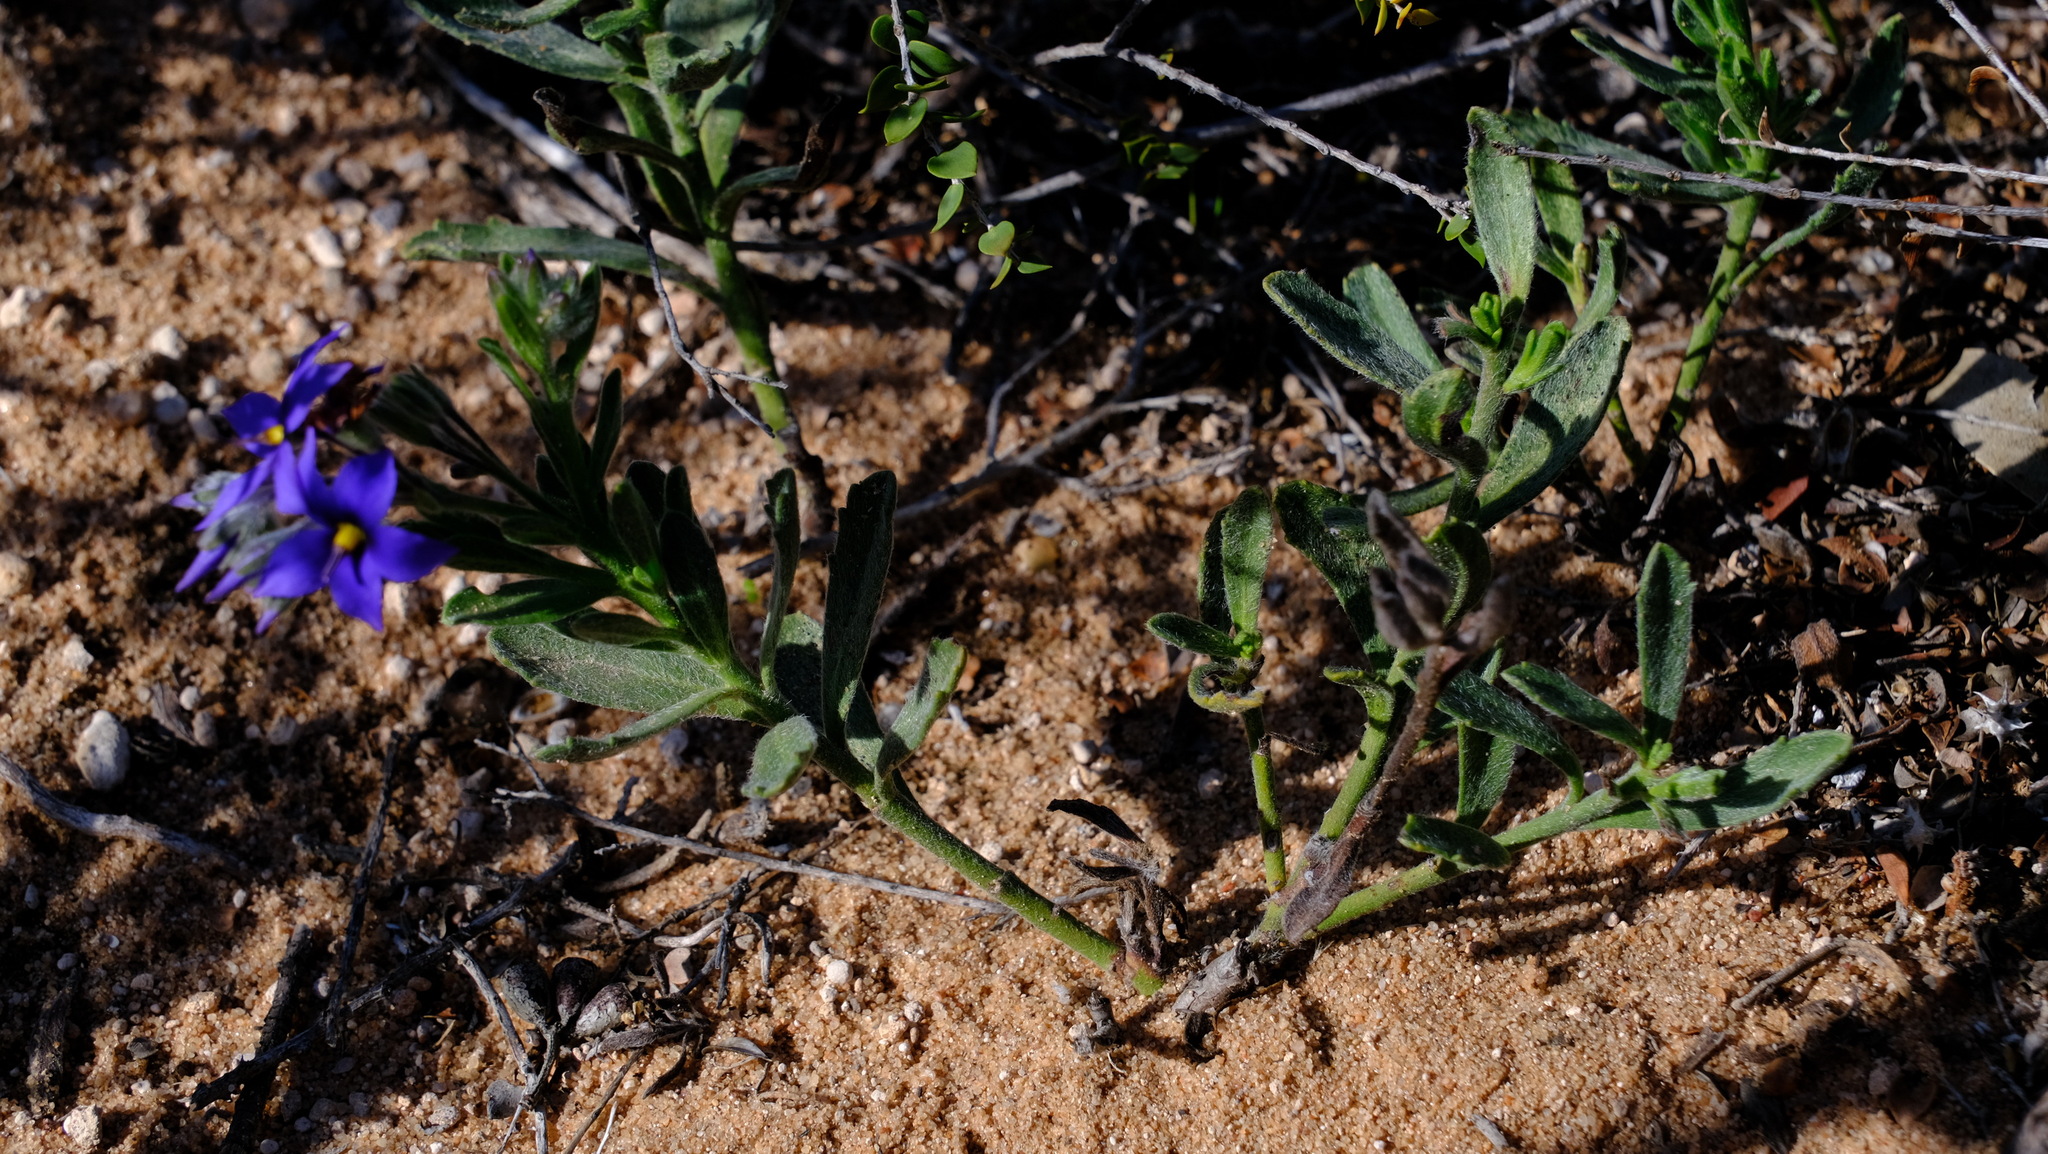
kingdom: Plantae
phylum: Tracheophyta
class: Magnoliopsida
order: Boraginales
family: Ehretiaceae
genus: Halgania
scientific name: Halgania sericiflora
